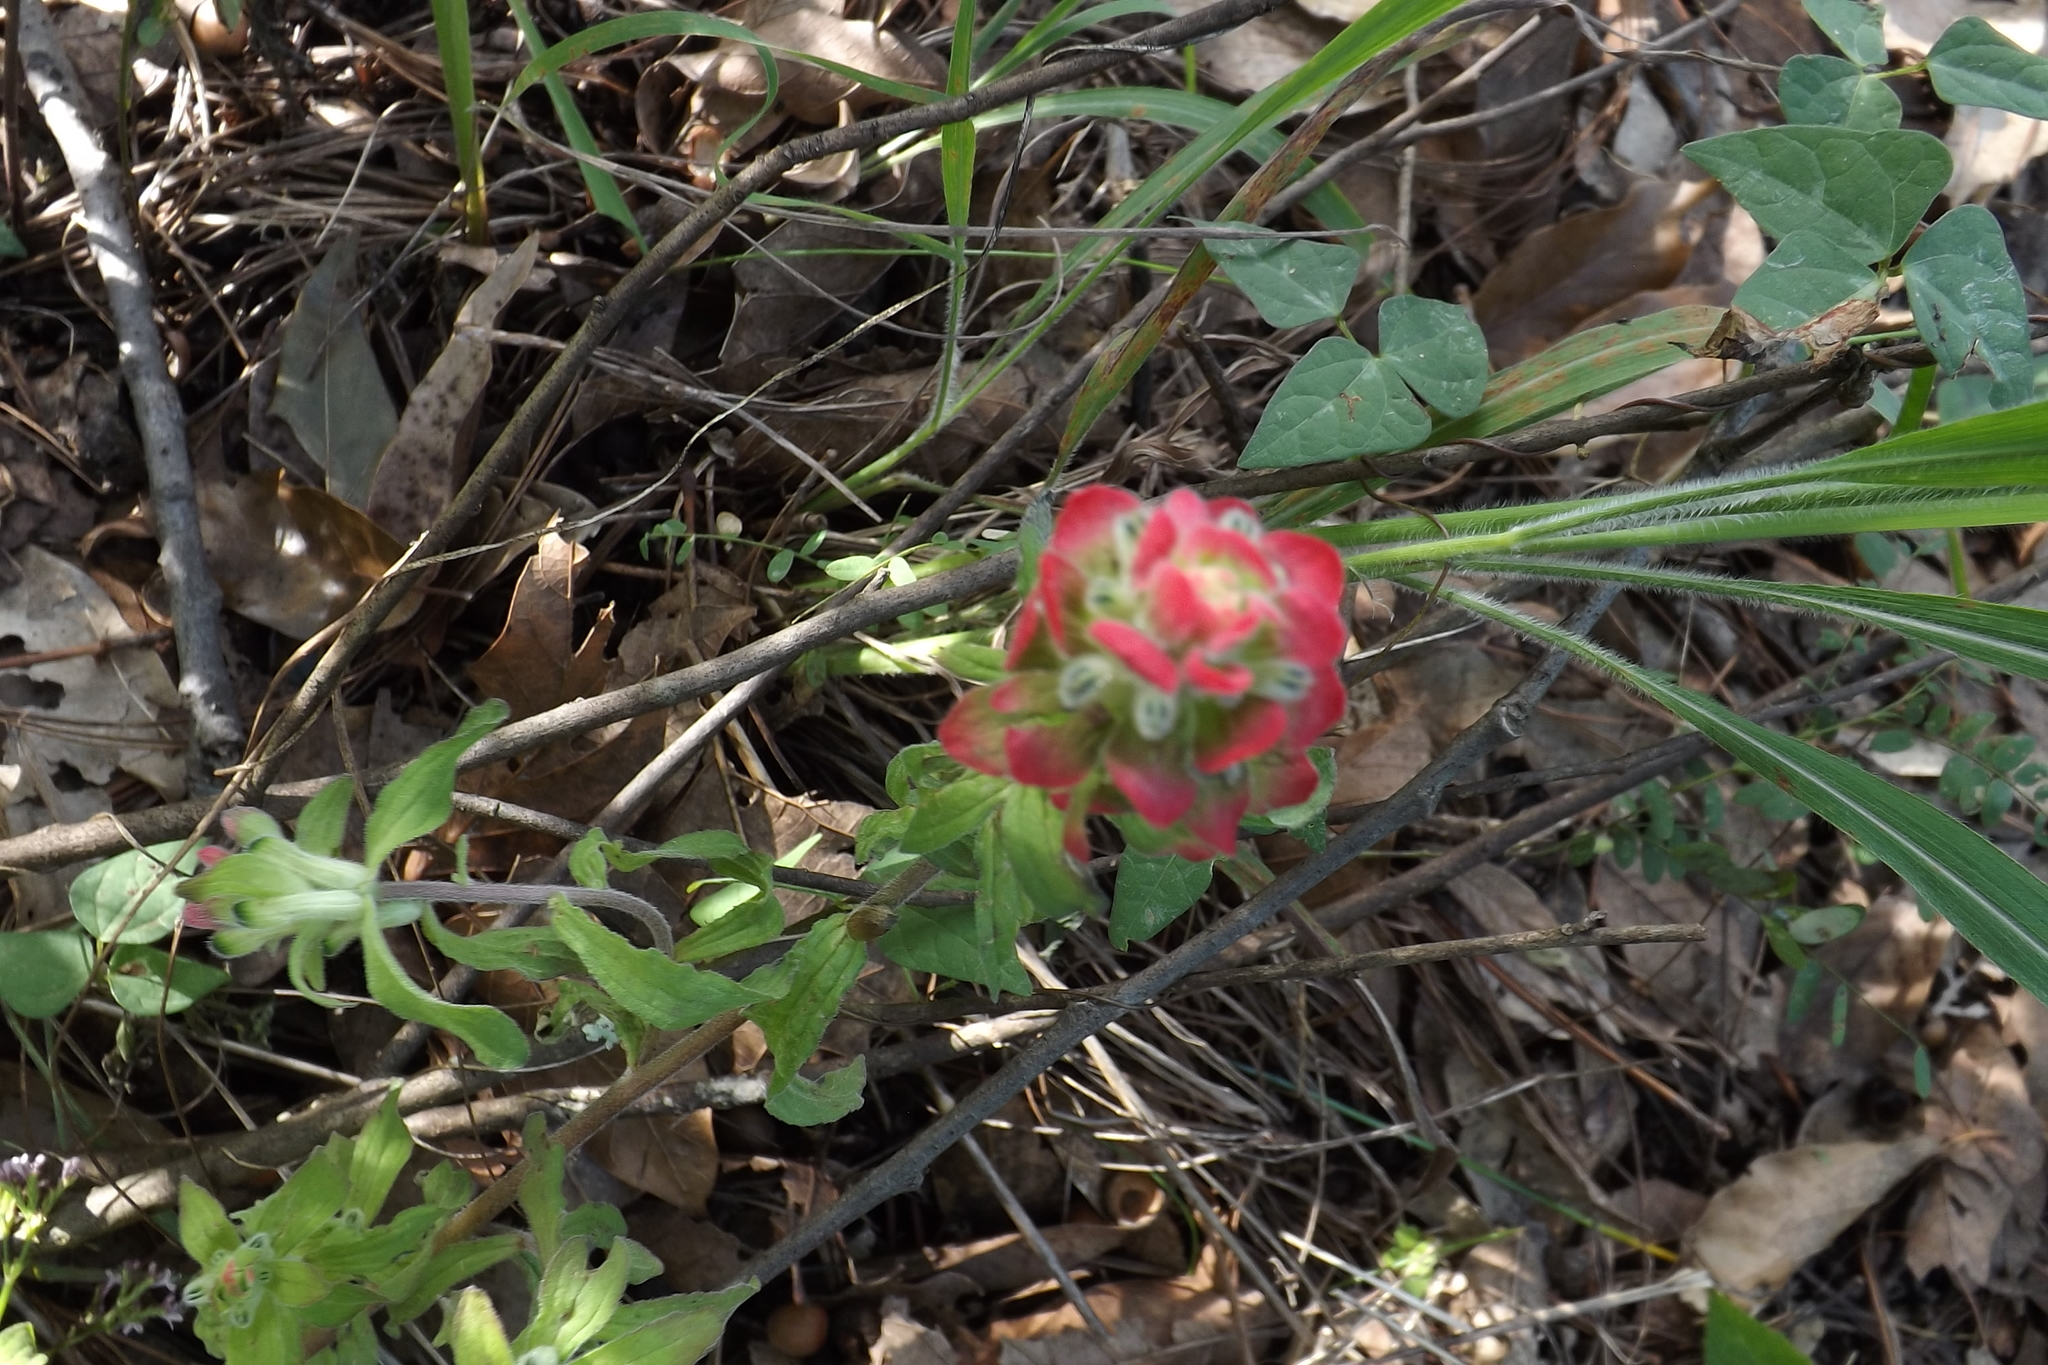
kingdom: Plantae
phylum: Tracheophyta
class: Magnoliopsida
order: Lamiales
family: Orobanchaceae
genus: Castilleja
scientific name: Castilleja arvensis
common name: Indian paintbrush
